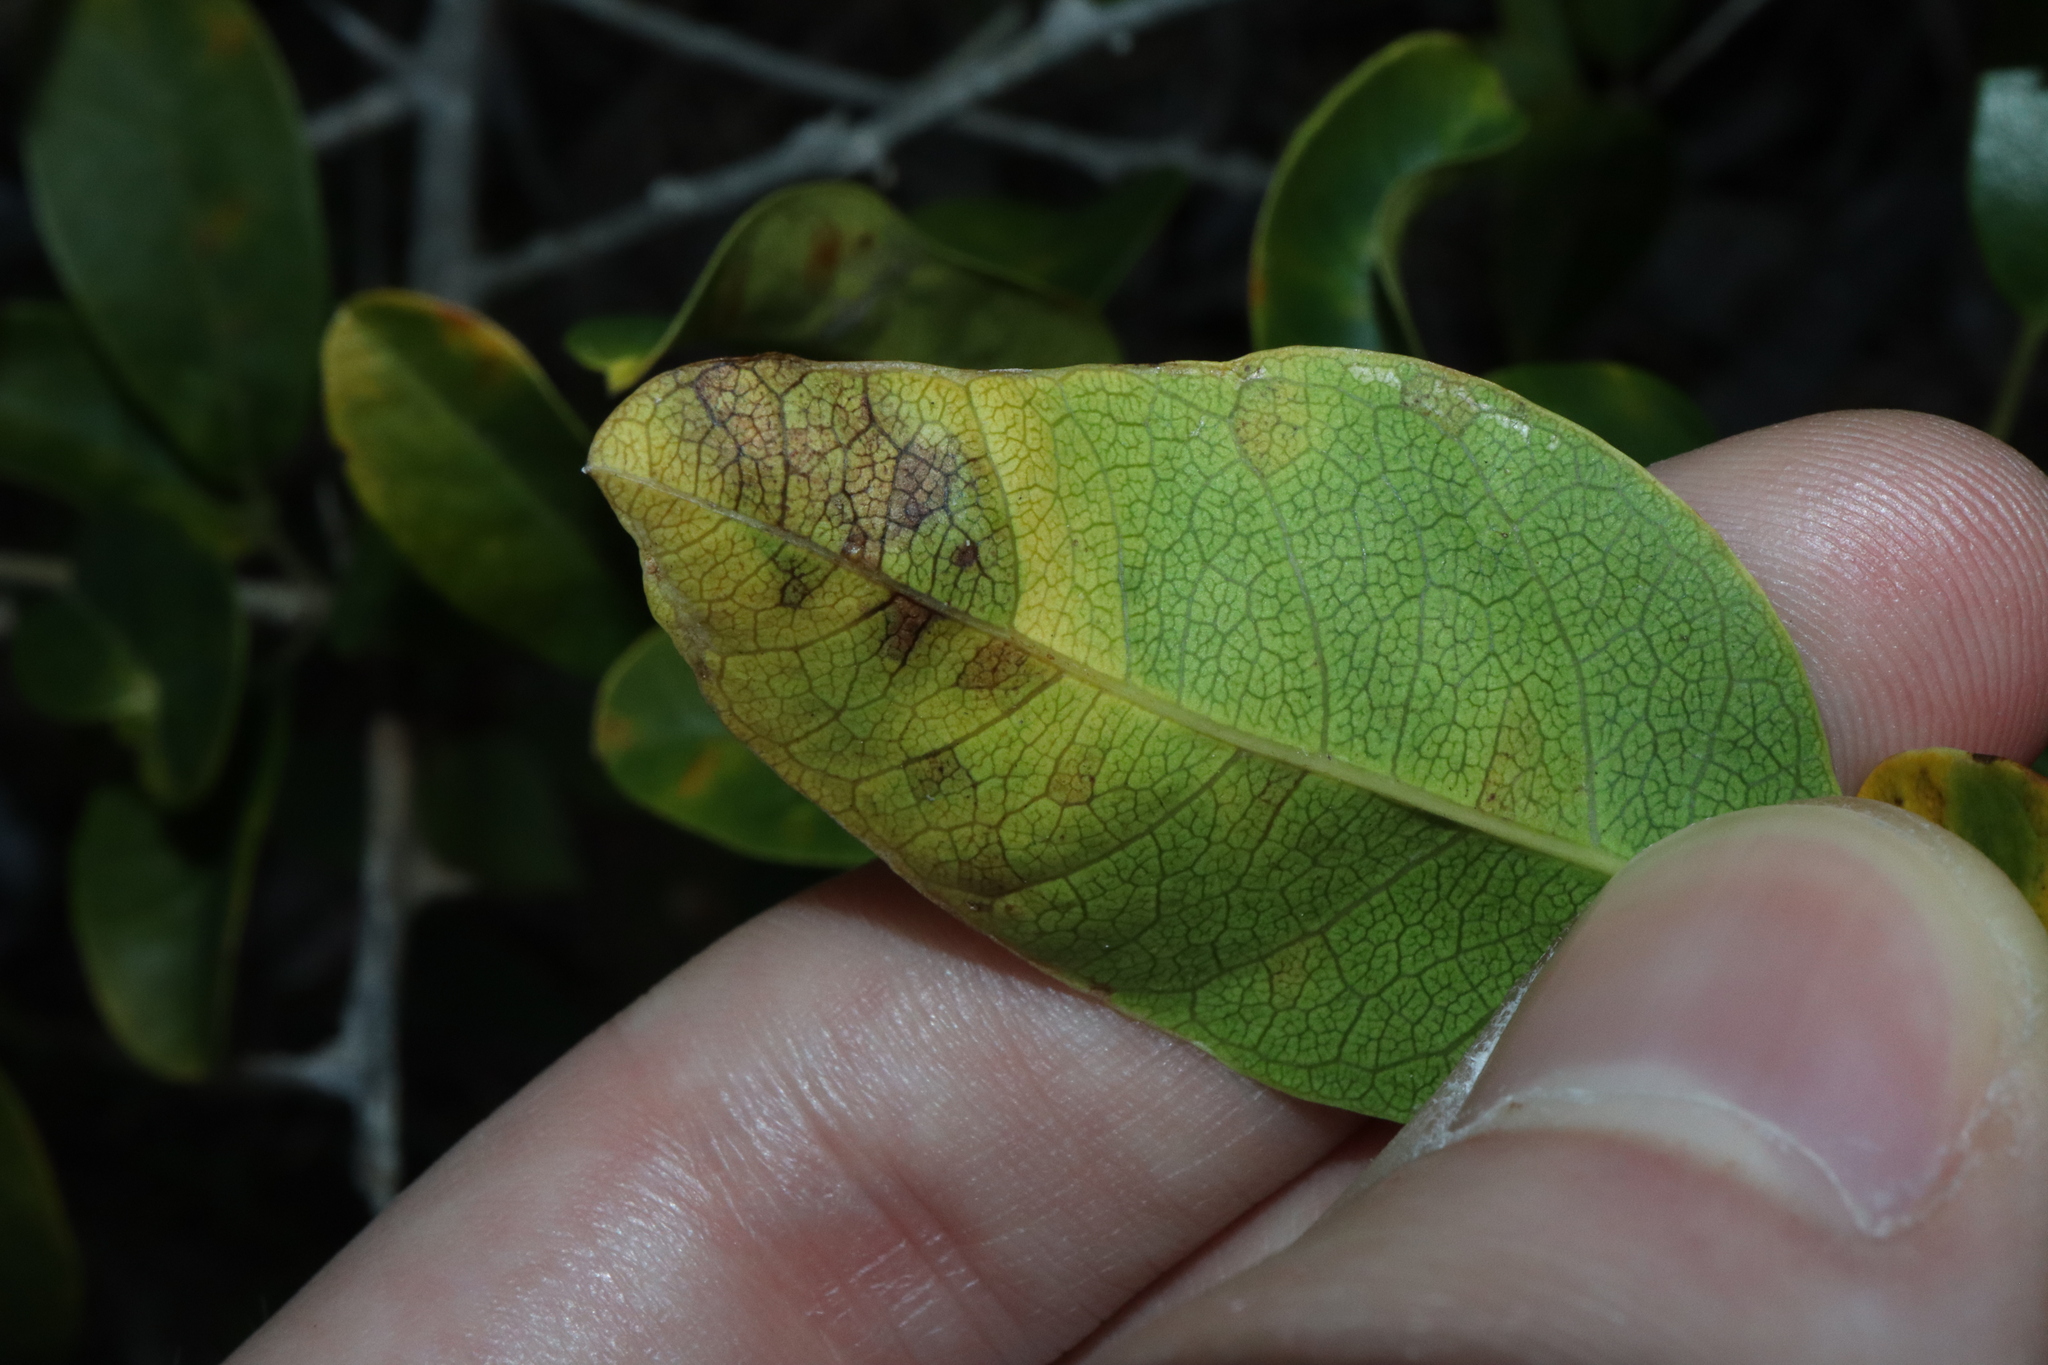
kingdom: Fungi
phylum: Ascomycota
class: Dothideomycetes
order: Mycosphaerellales
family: Mycosphaerellaceae
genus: Zasmidium
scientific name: Zasmidium macluricola
